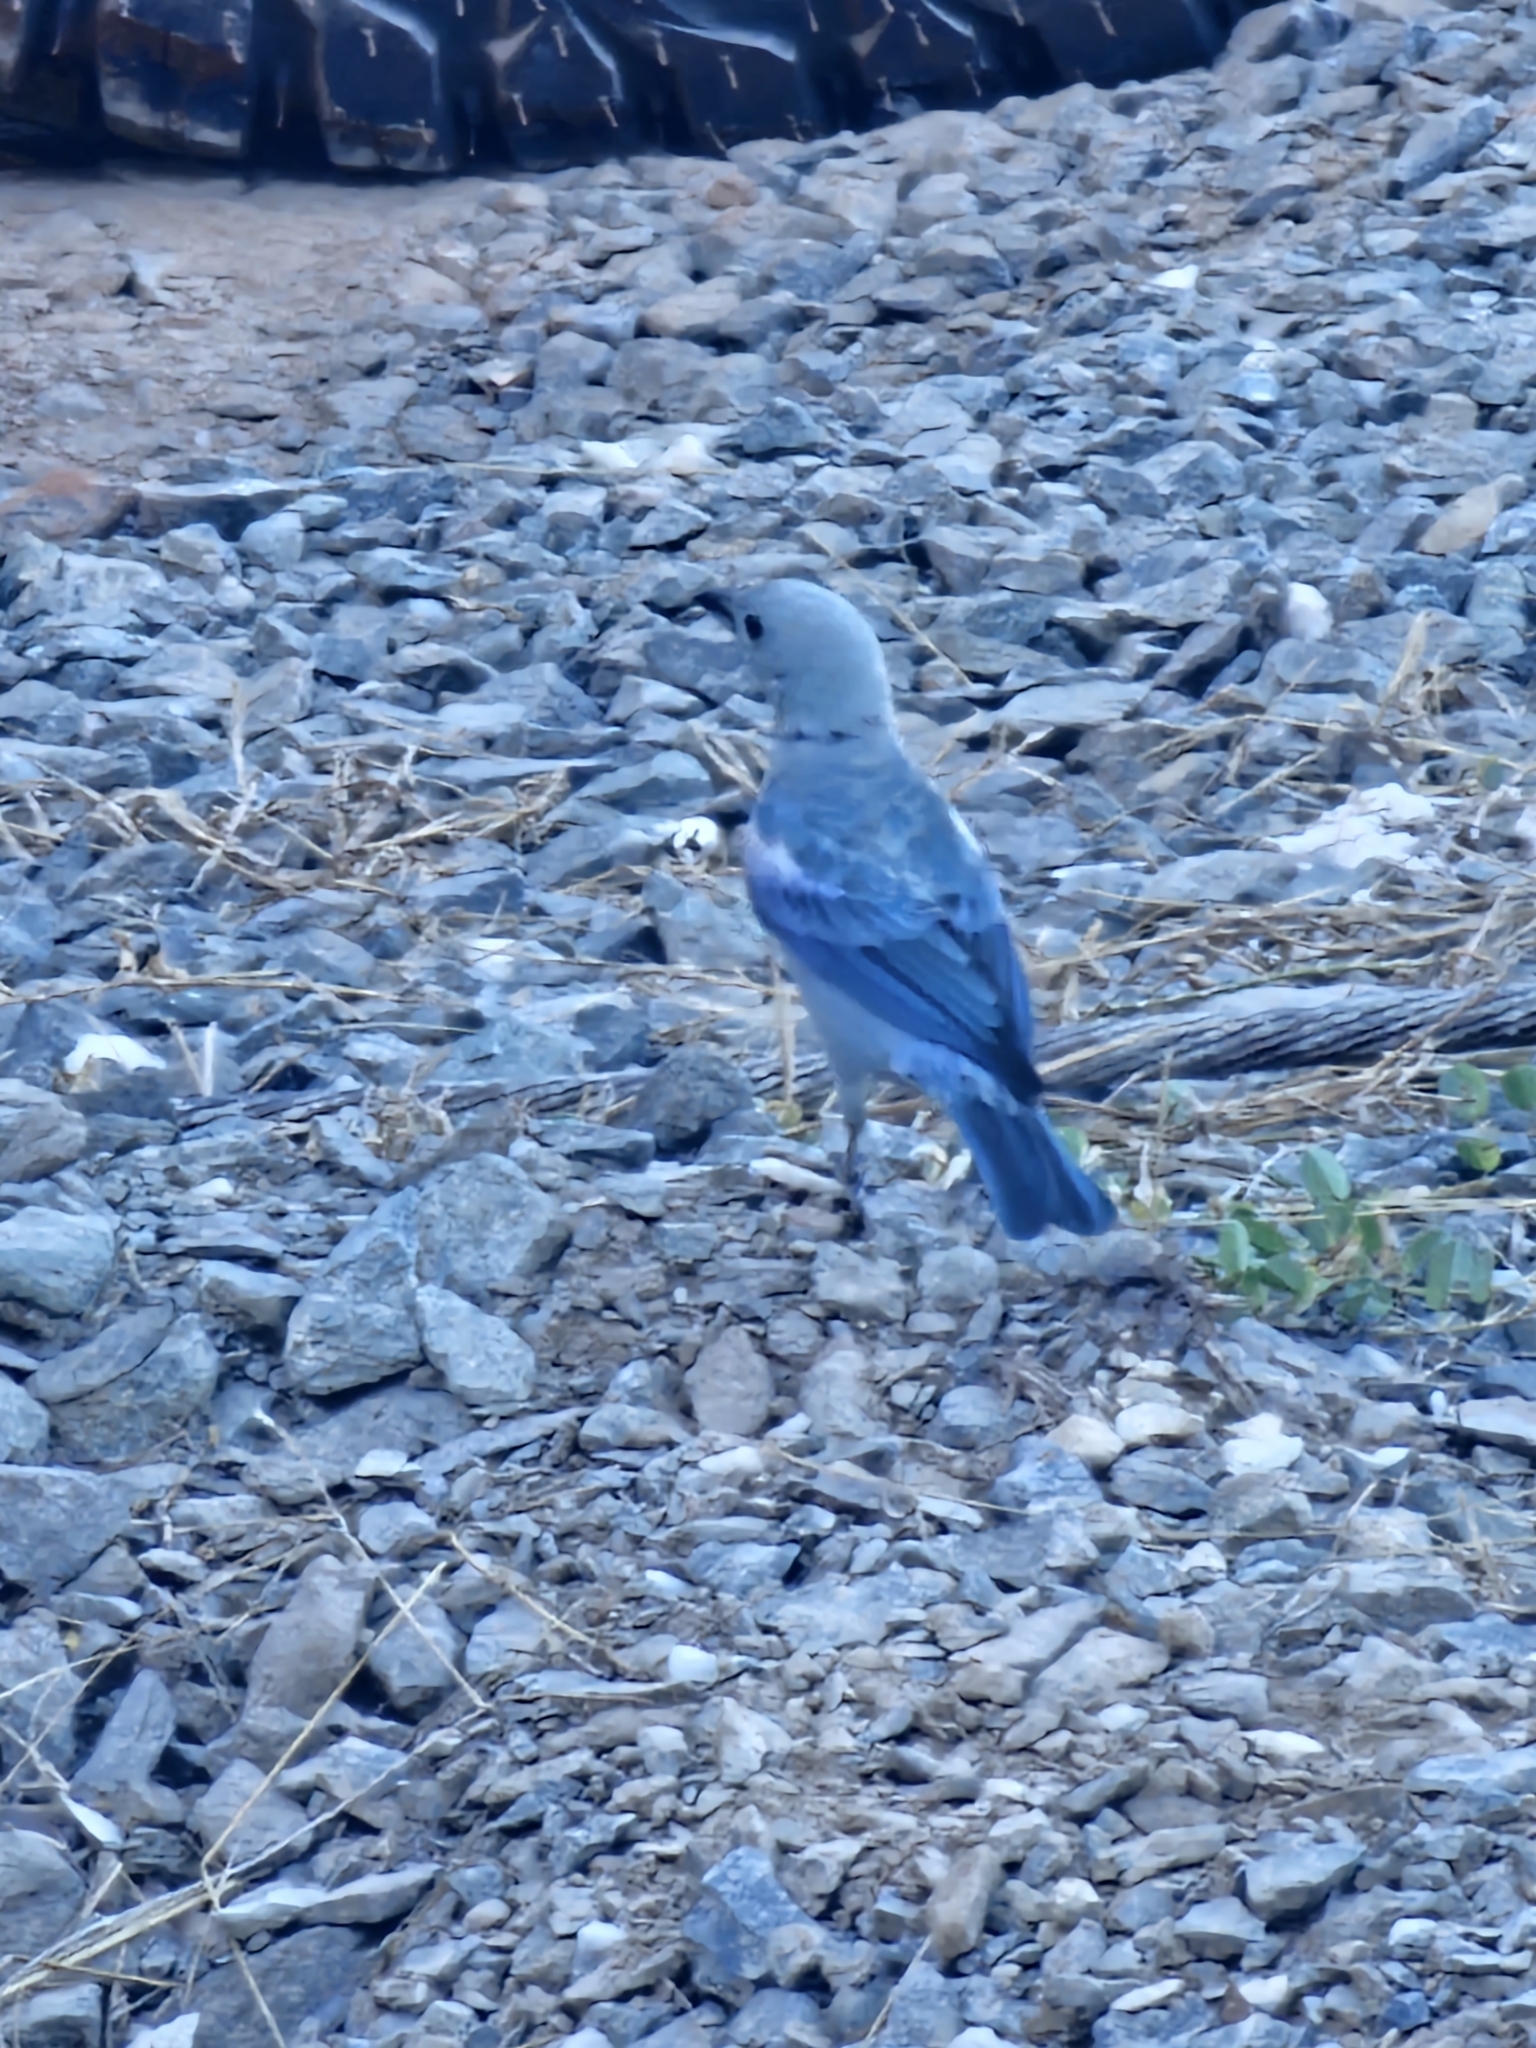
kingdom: Animalia
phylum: Chordata
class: Aves
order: Passeriformes
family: Thraupidae
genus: Thraupis
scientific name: Thraupis episcopus
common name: Blue-grey tanager
